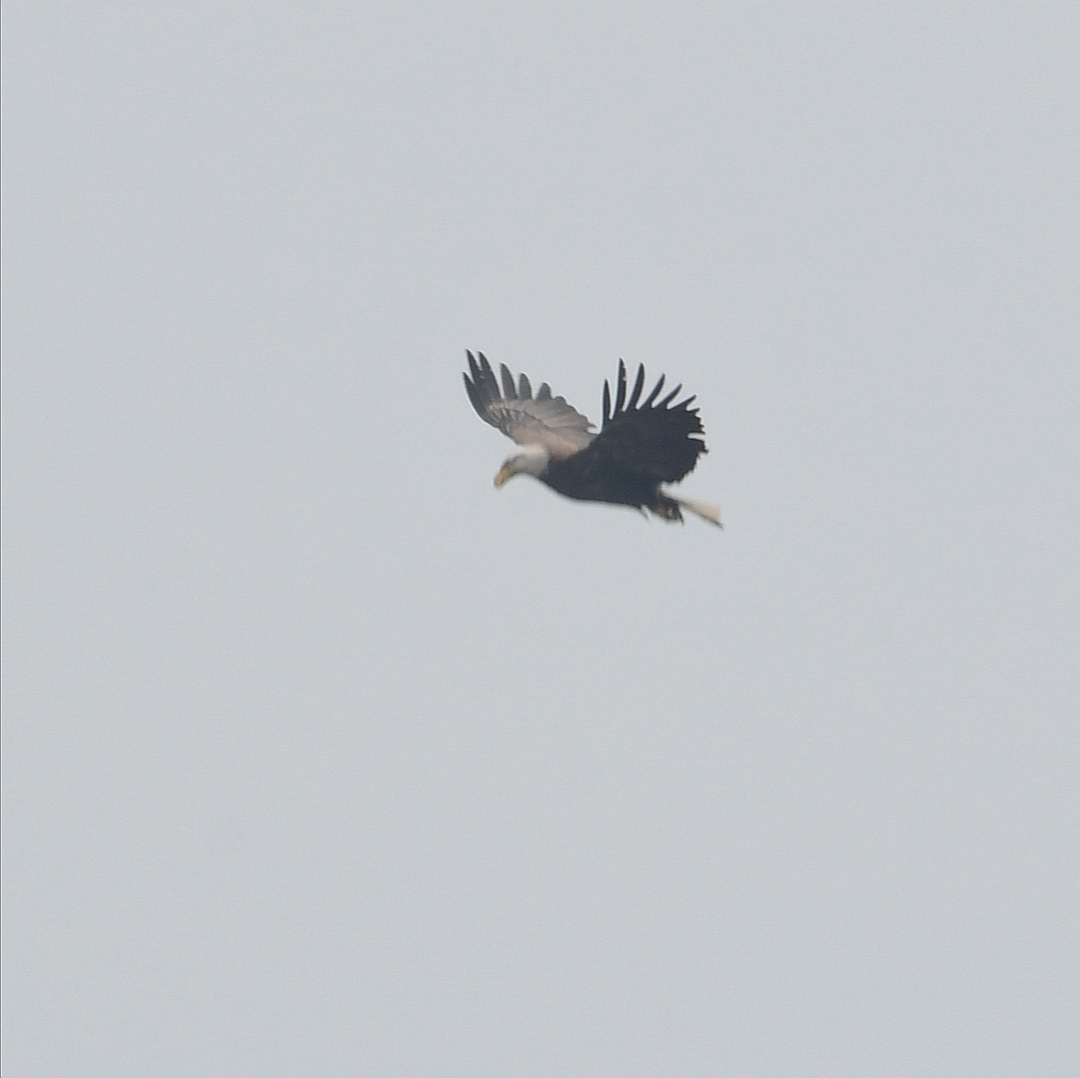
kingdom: Animalia
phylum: Chordata
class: Aves
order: Accipitriformes
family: Accipitridae
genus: Haliaeetus
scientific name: Haliaeetus leucocephalus
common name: Bald eagle
